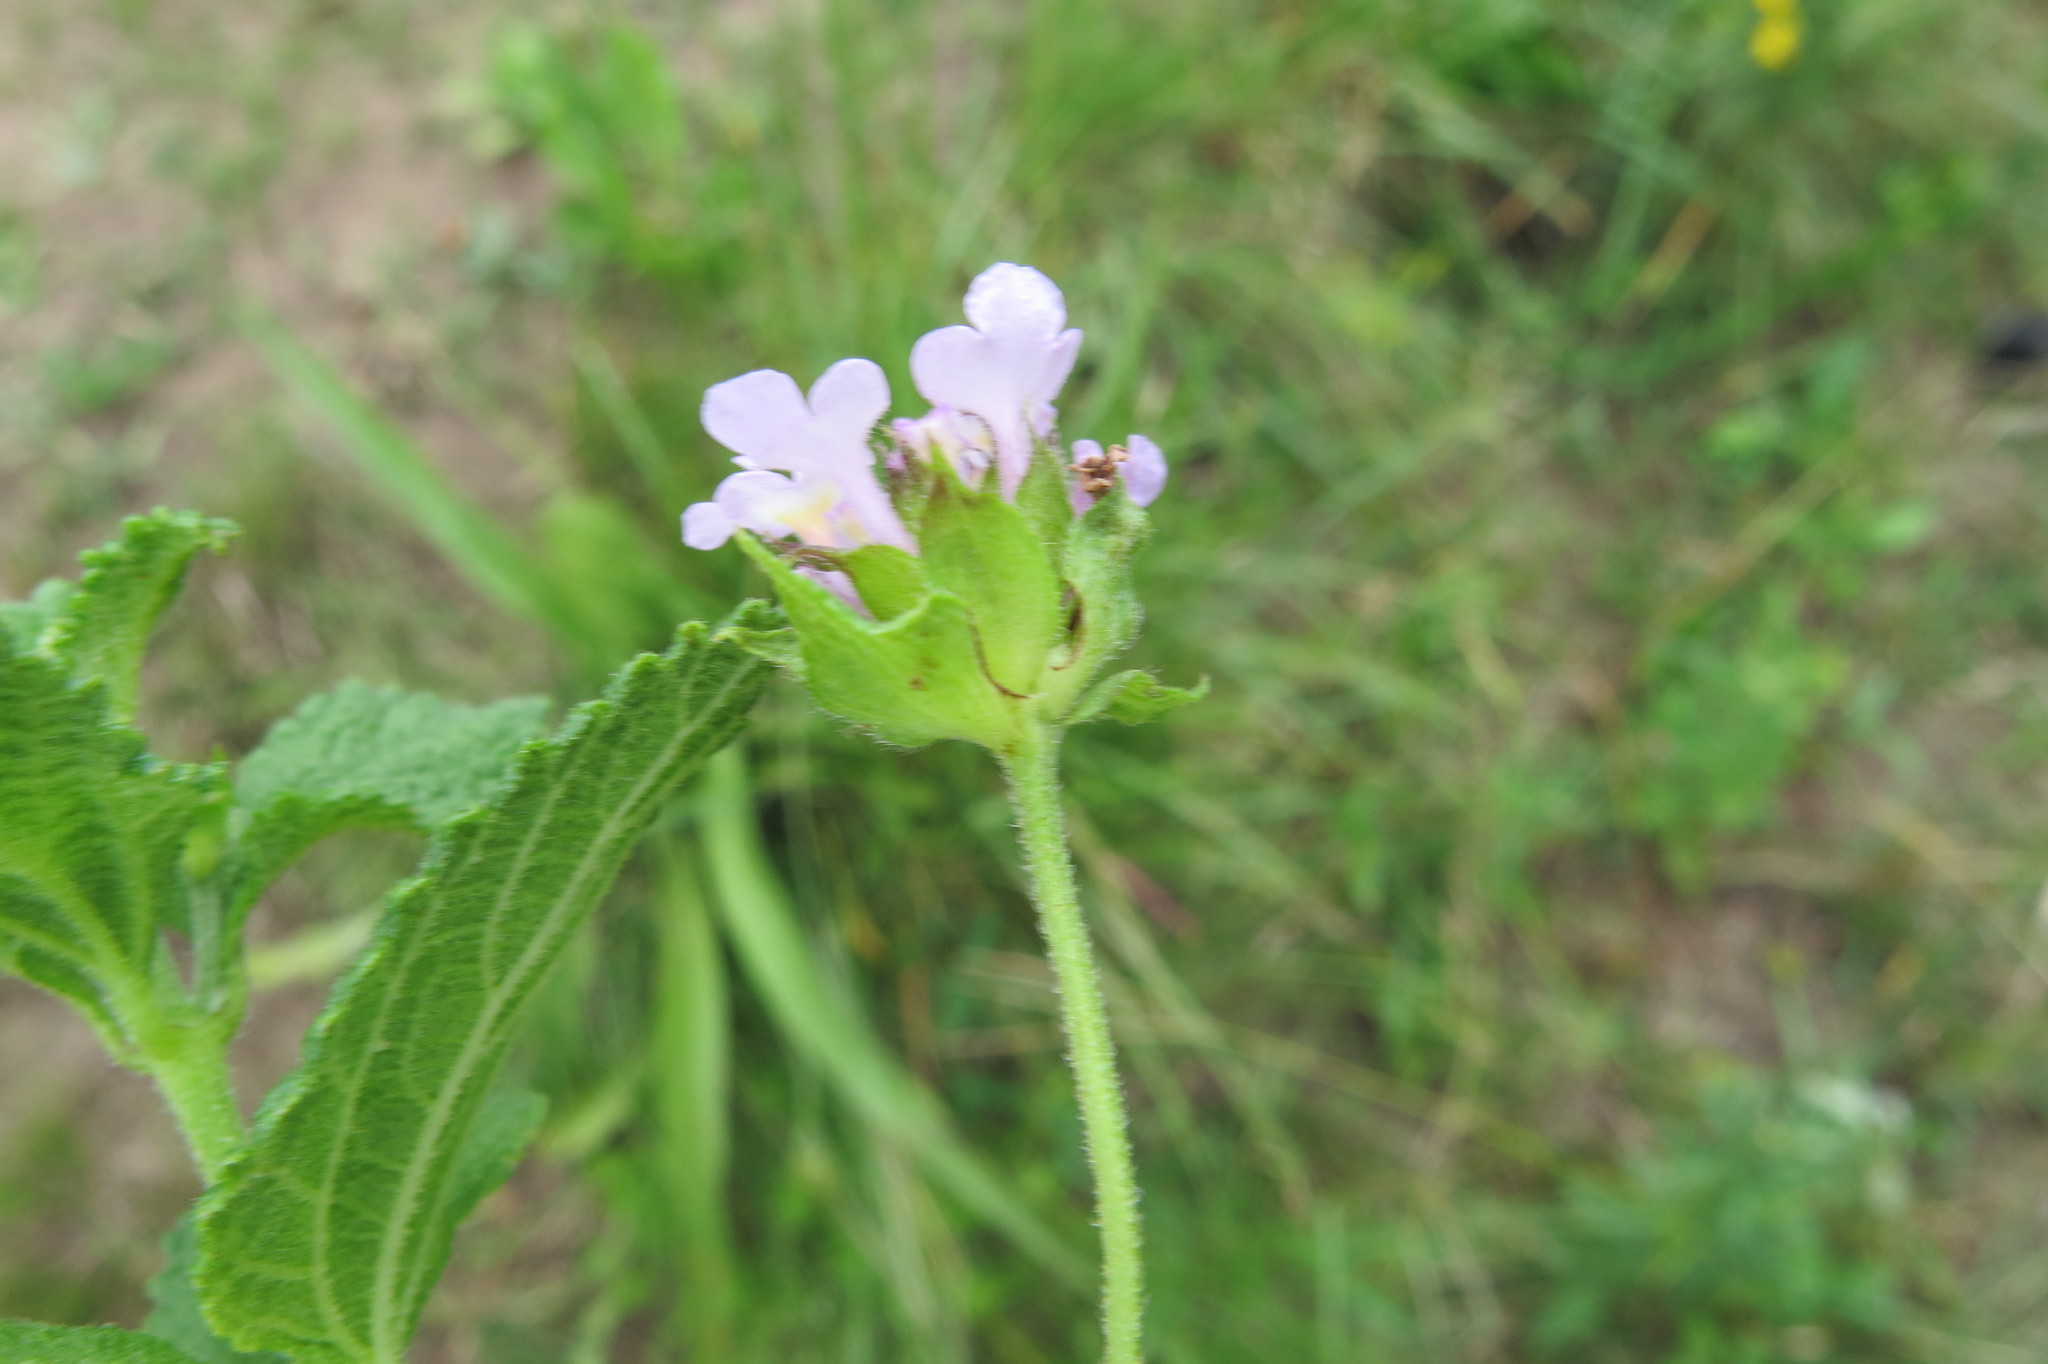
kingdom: Plantae
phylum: Tracheophyta
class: Magnoliopsida
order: Lamiales
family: Verbenaceae
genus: Lantana
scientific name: Lantana rugosa
